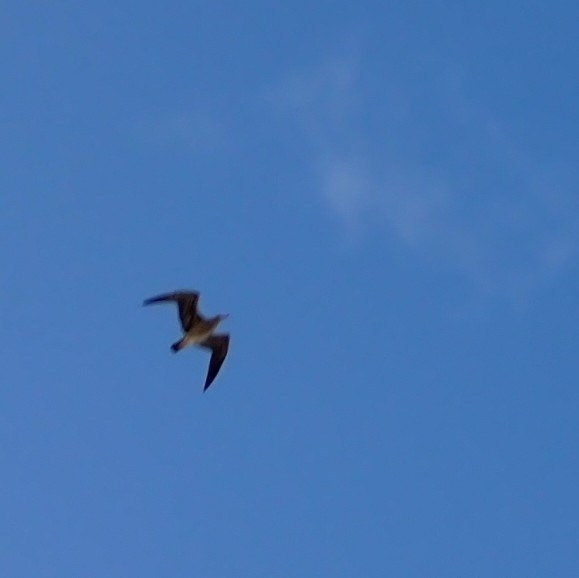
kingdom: Animalia
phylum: Chordata
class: Aves
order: Charadriiformes
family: Laridae
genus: Larus
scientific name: Larus michahellis
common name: Yellow-legged gull
